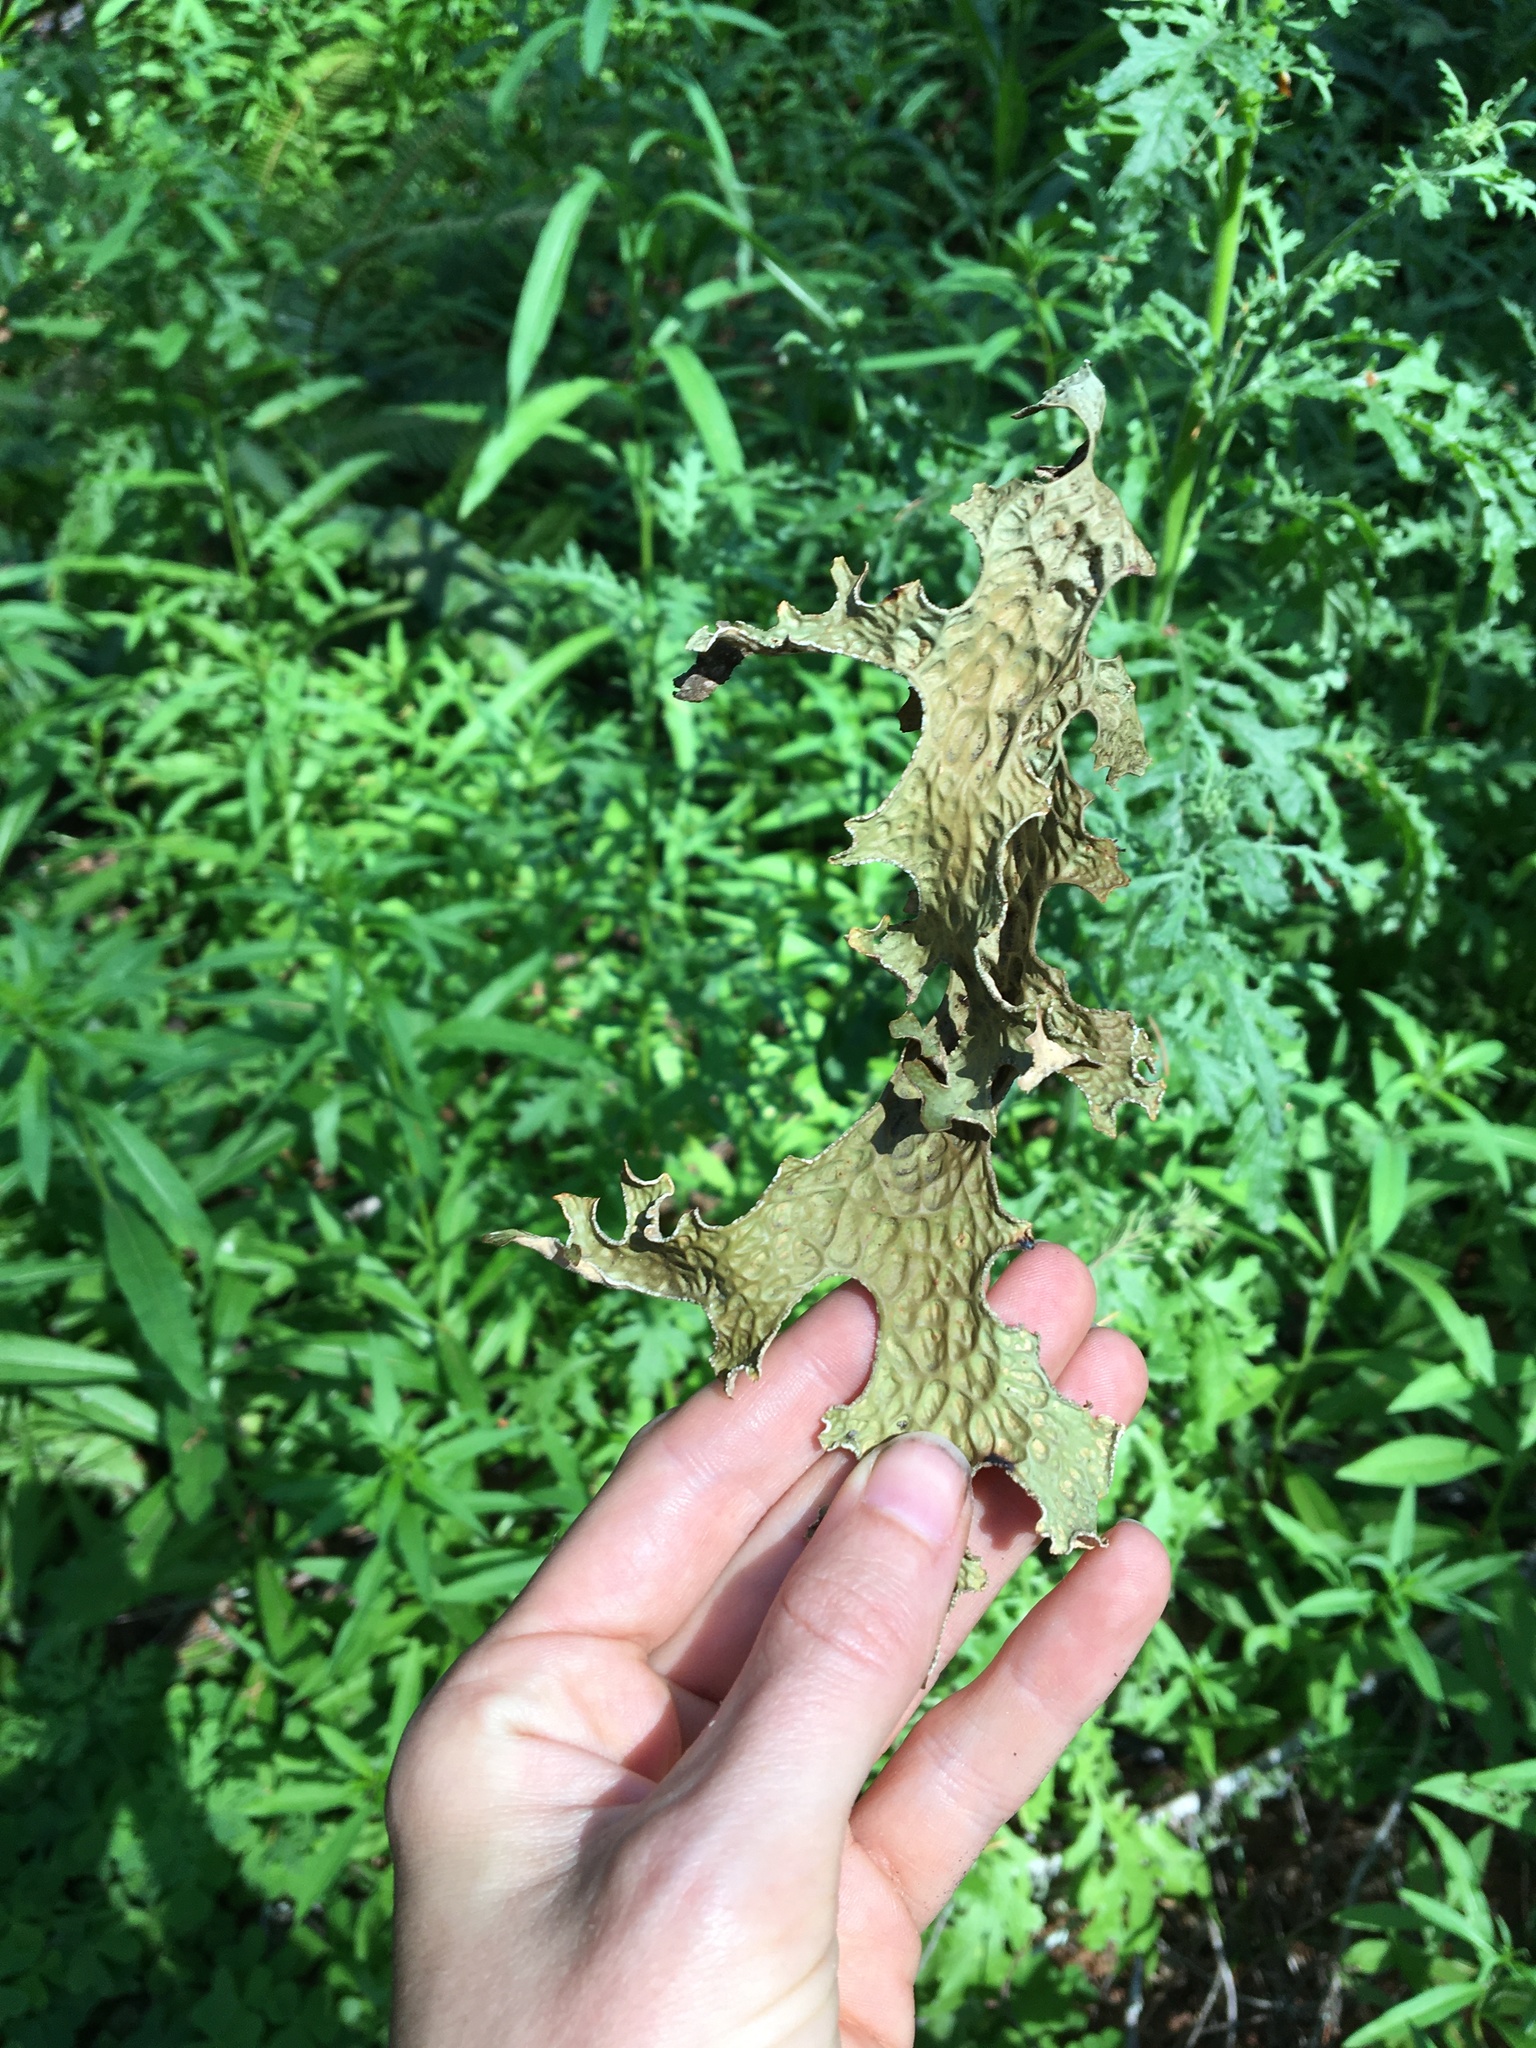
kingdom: Fungi
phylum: Ascomycota
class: Lecanoromycetes
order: Peltigerales
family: Lobariaceae
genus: Lobaria
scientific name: Lobaria pulmonaria
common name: Lungwort
